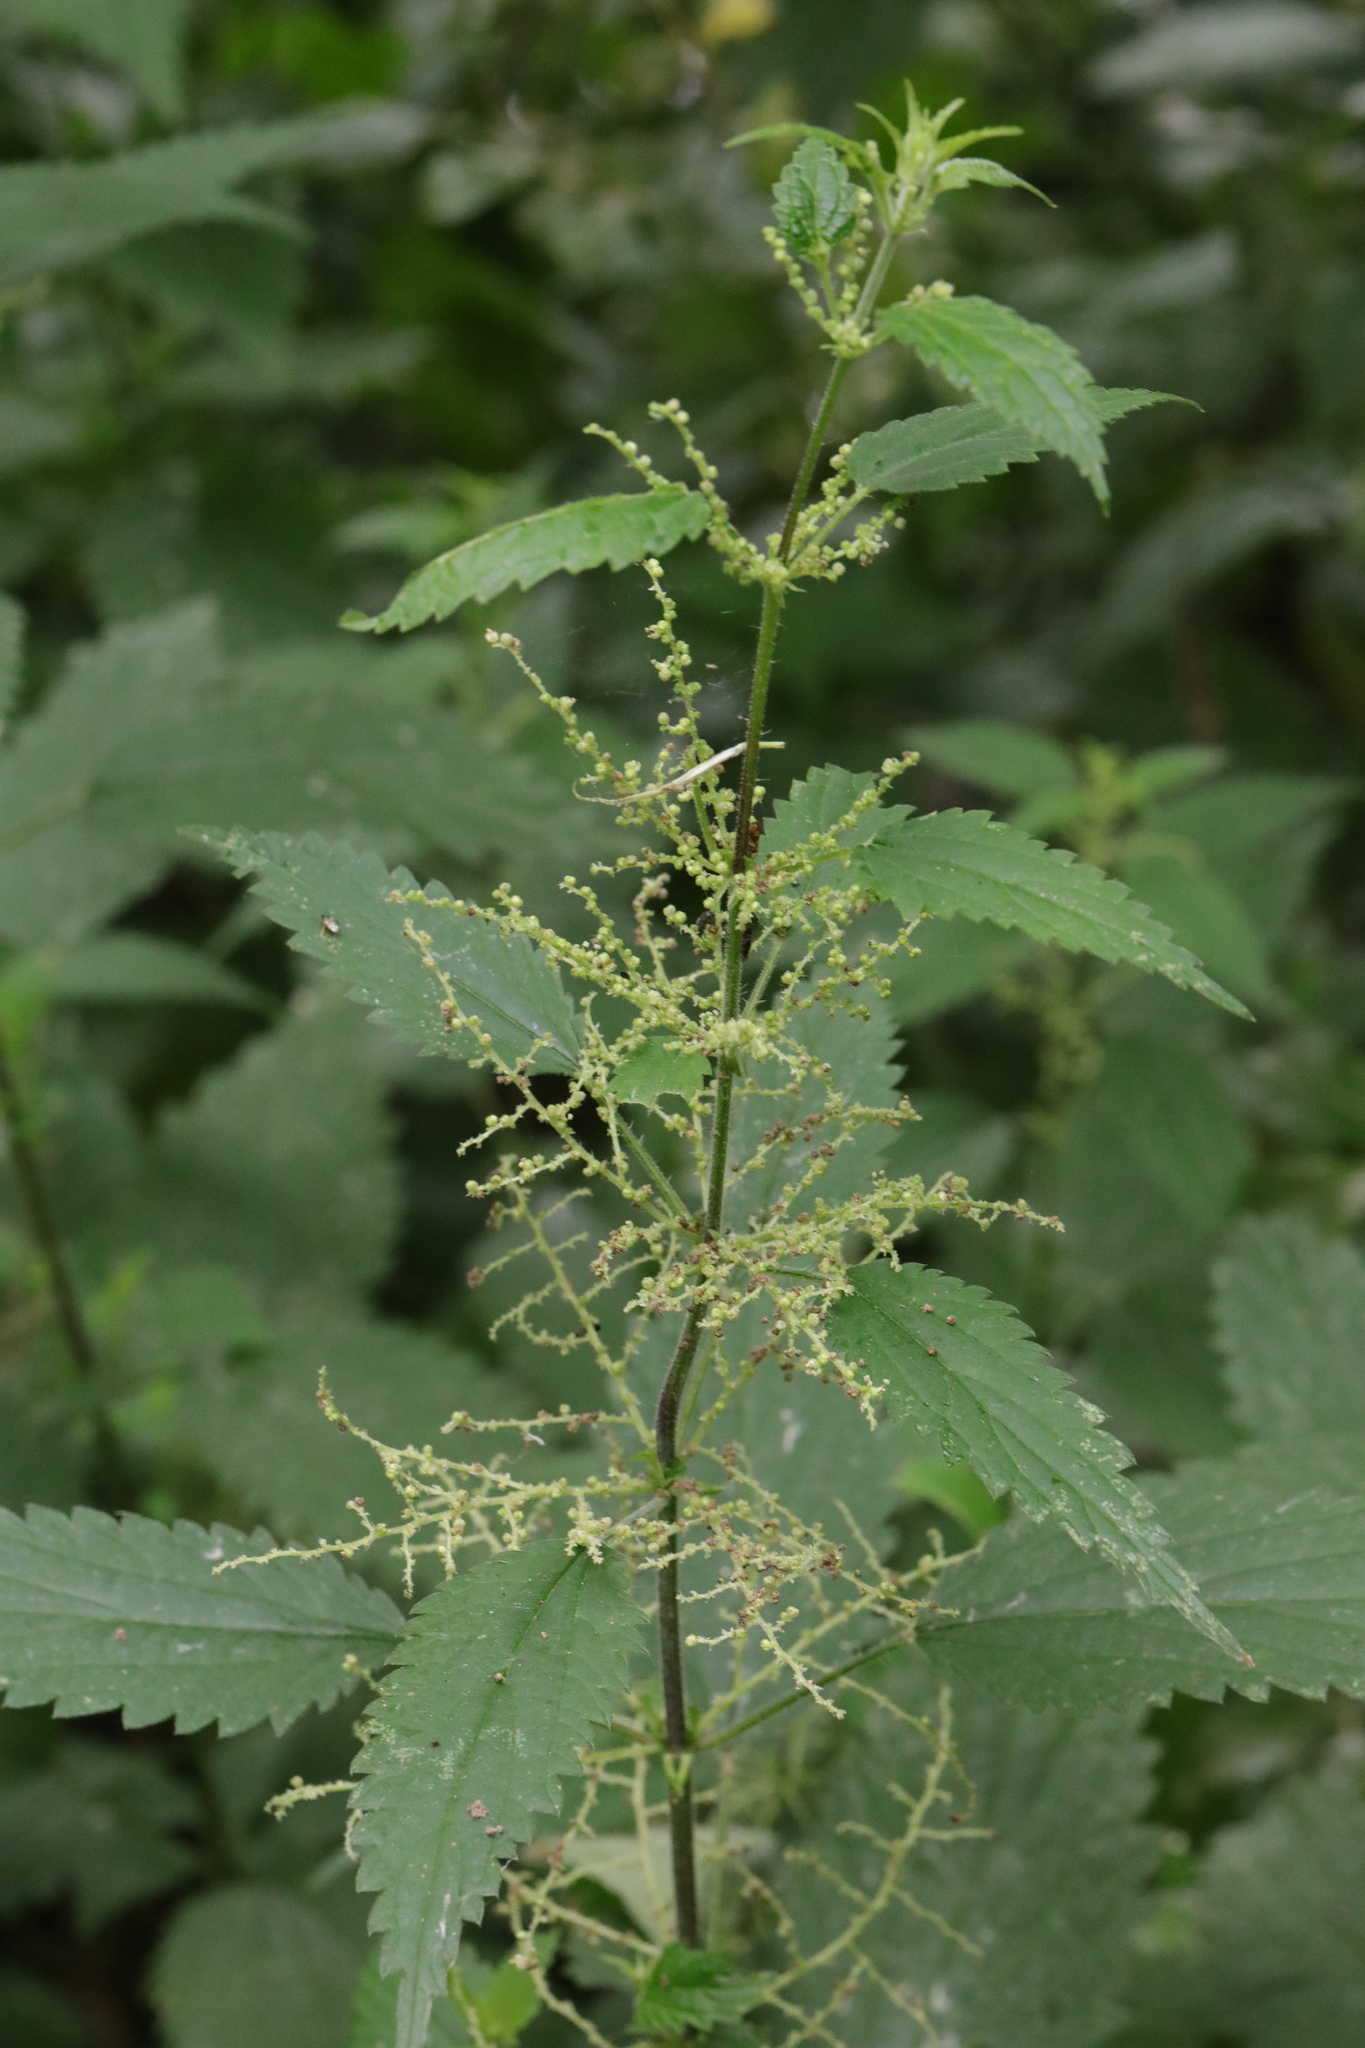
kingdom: Plantae
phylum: Tracheophyta
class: Magnoliopsida
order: Rosales
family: Urticaceae
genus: Urtica
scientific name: Urtica dioica
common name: Common nettle
